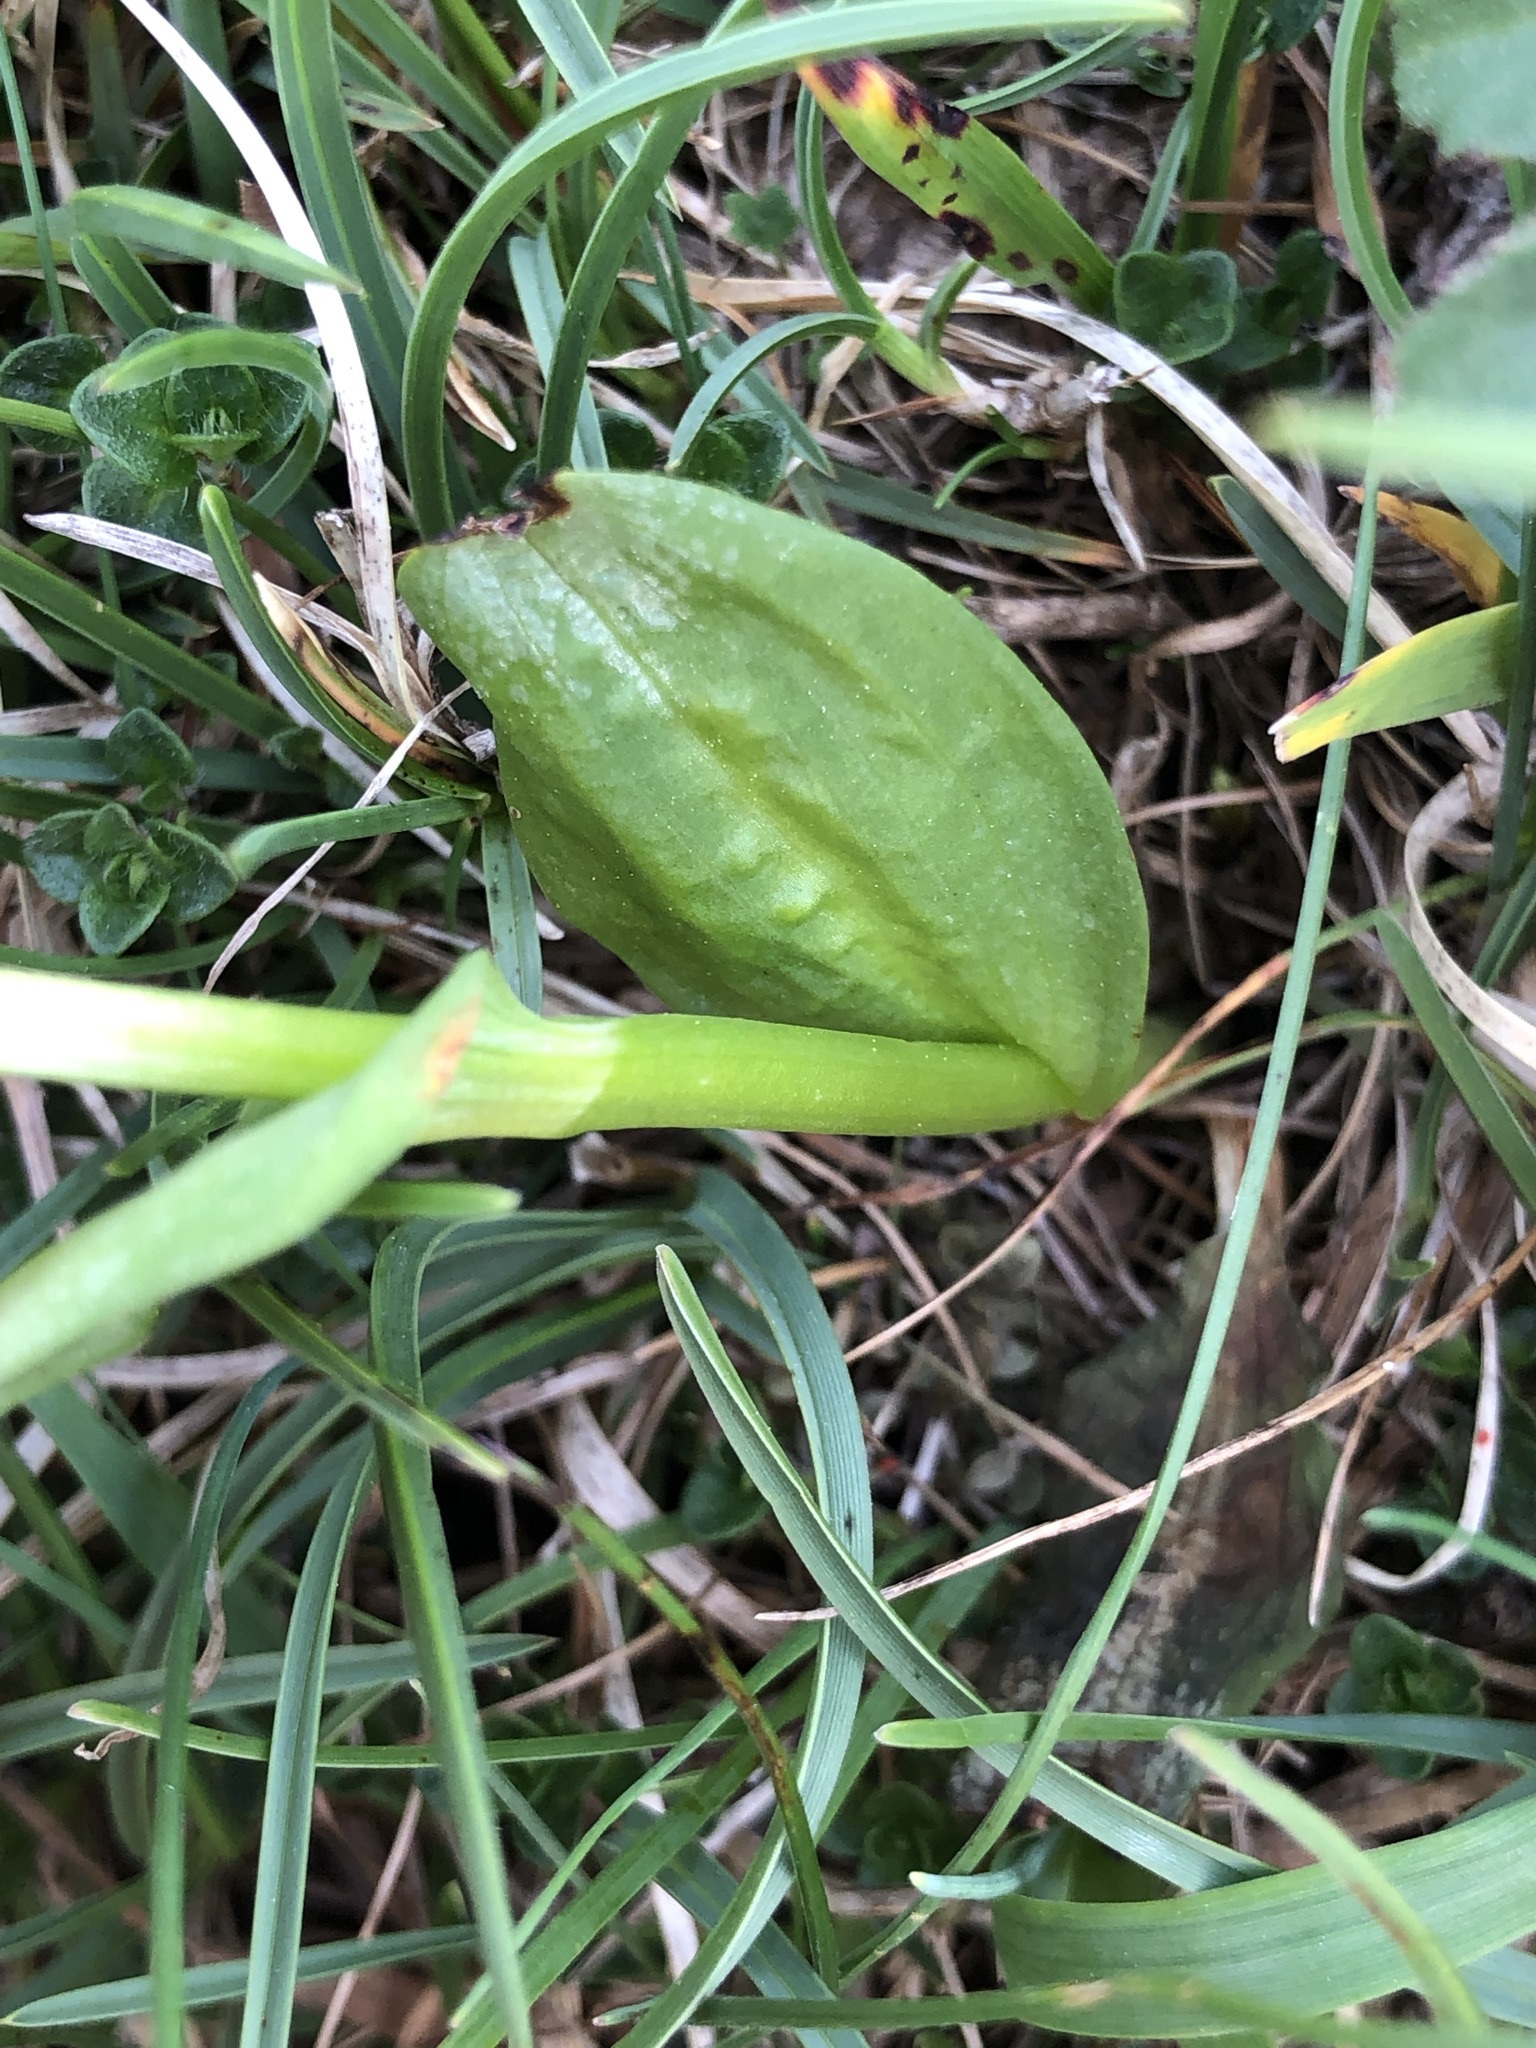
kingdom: Plantae
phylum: Tracheophyta
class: Liliopsida
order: Asparagales
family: Orchidaceae
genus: Dactylorhiza
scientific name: Dactylorhiza viridis
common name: Longbract frog orchid
